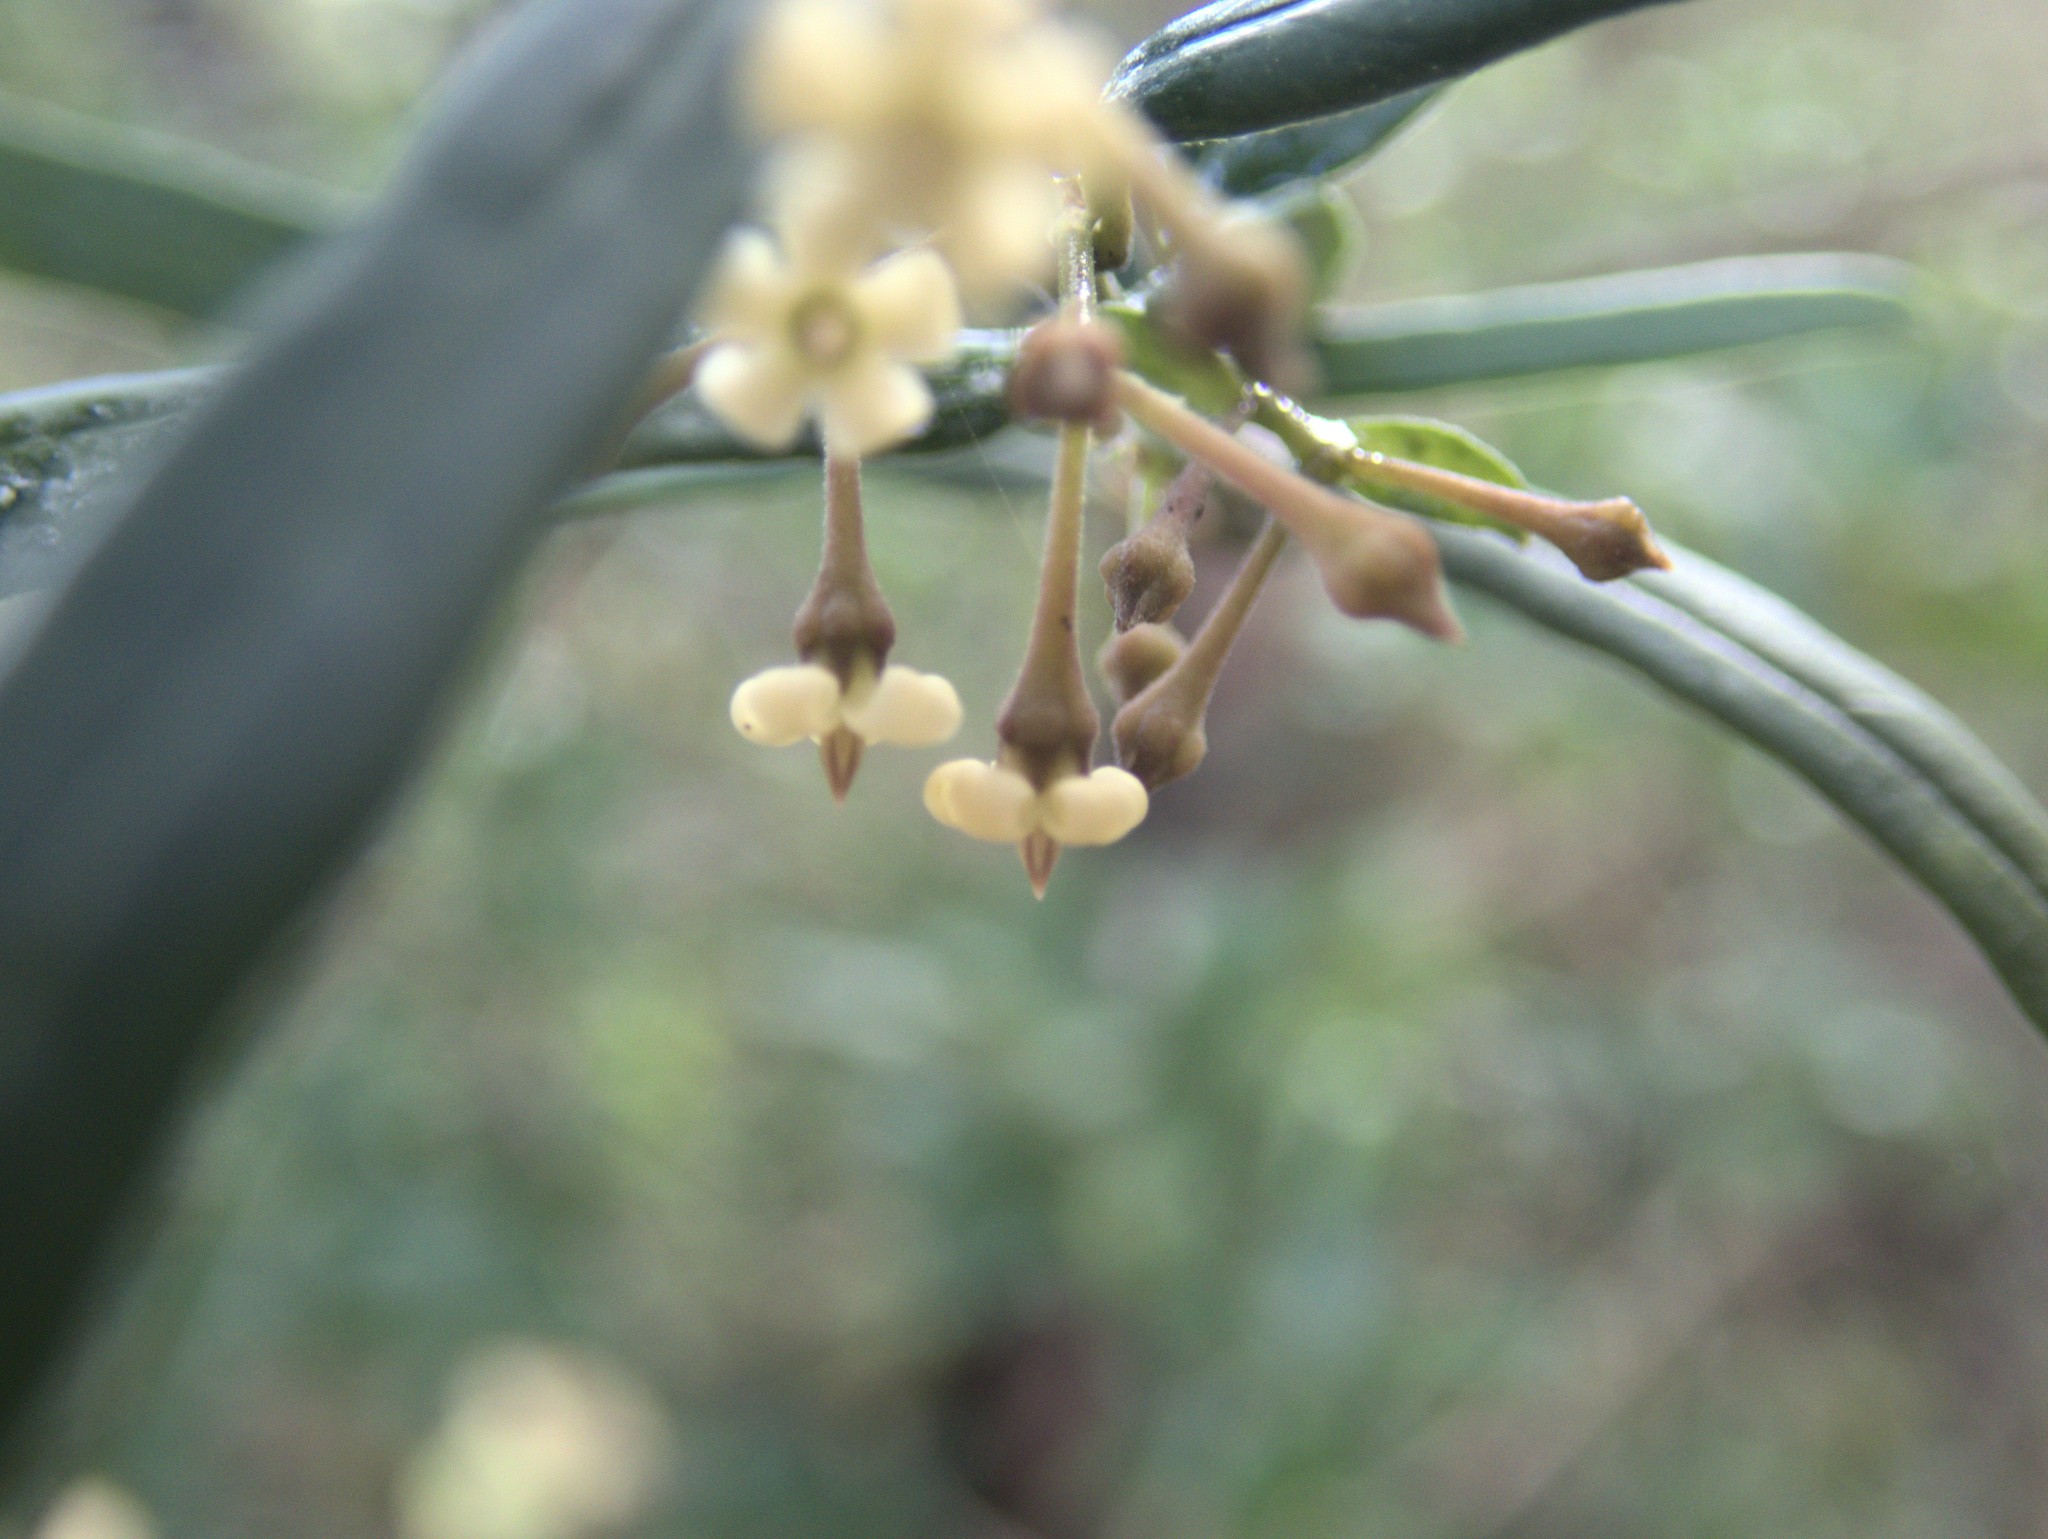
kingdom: Plantae
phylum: Tracheophyta
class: Magnoliopsida
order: Gentianales
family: Apocynaceae
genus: Parsonsia
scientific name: Parsonsia capsularis
